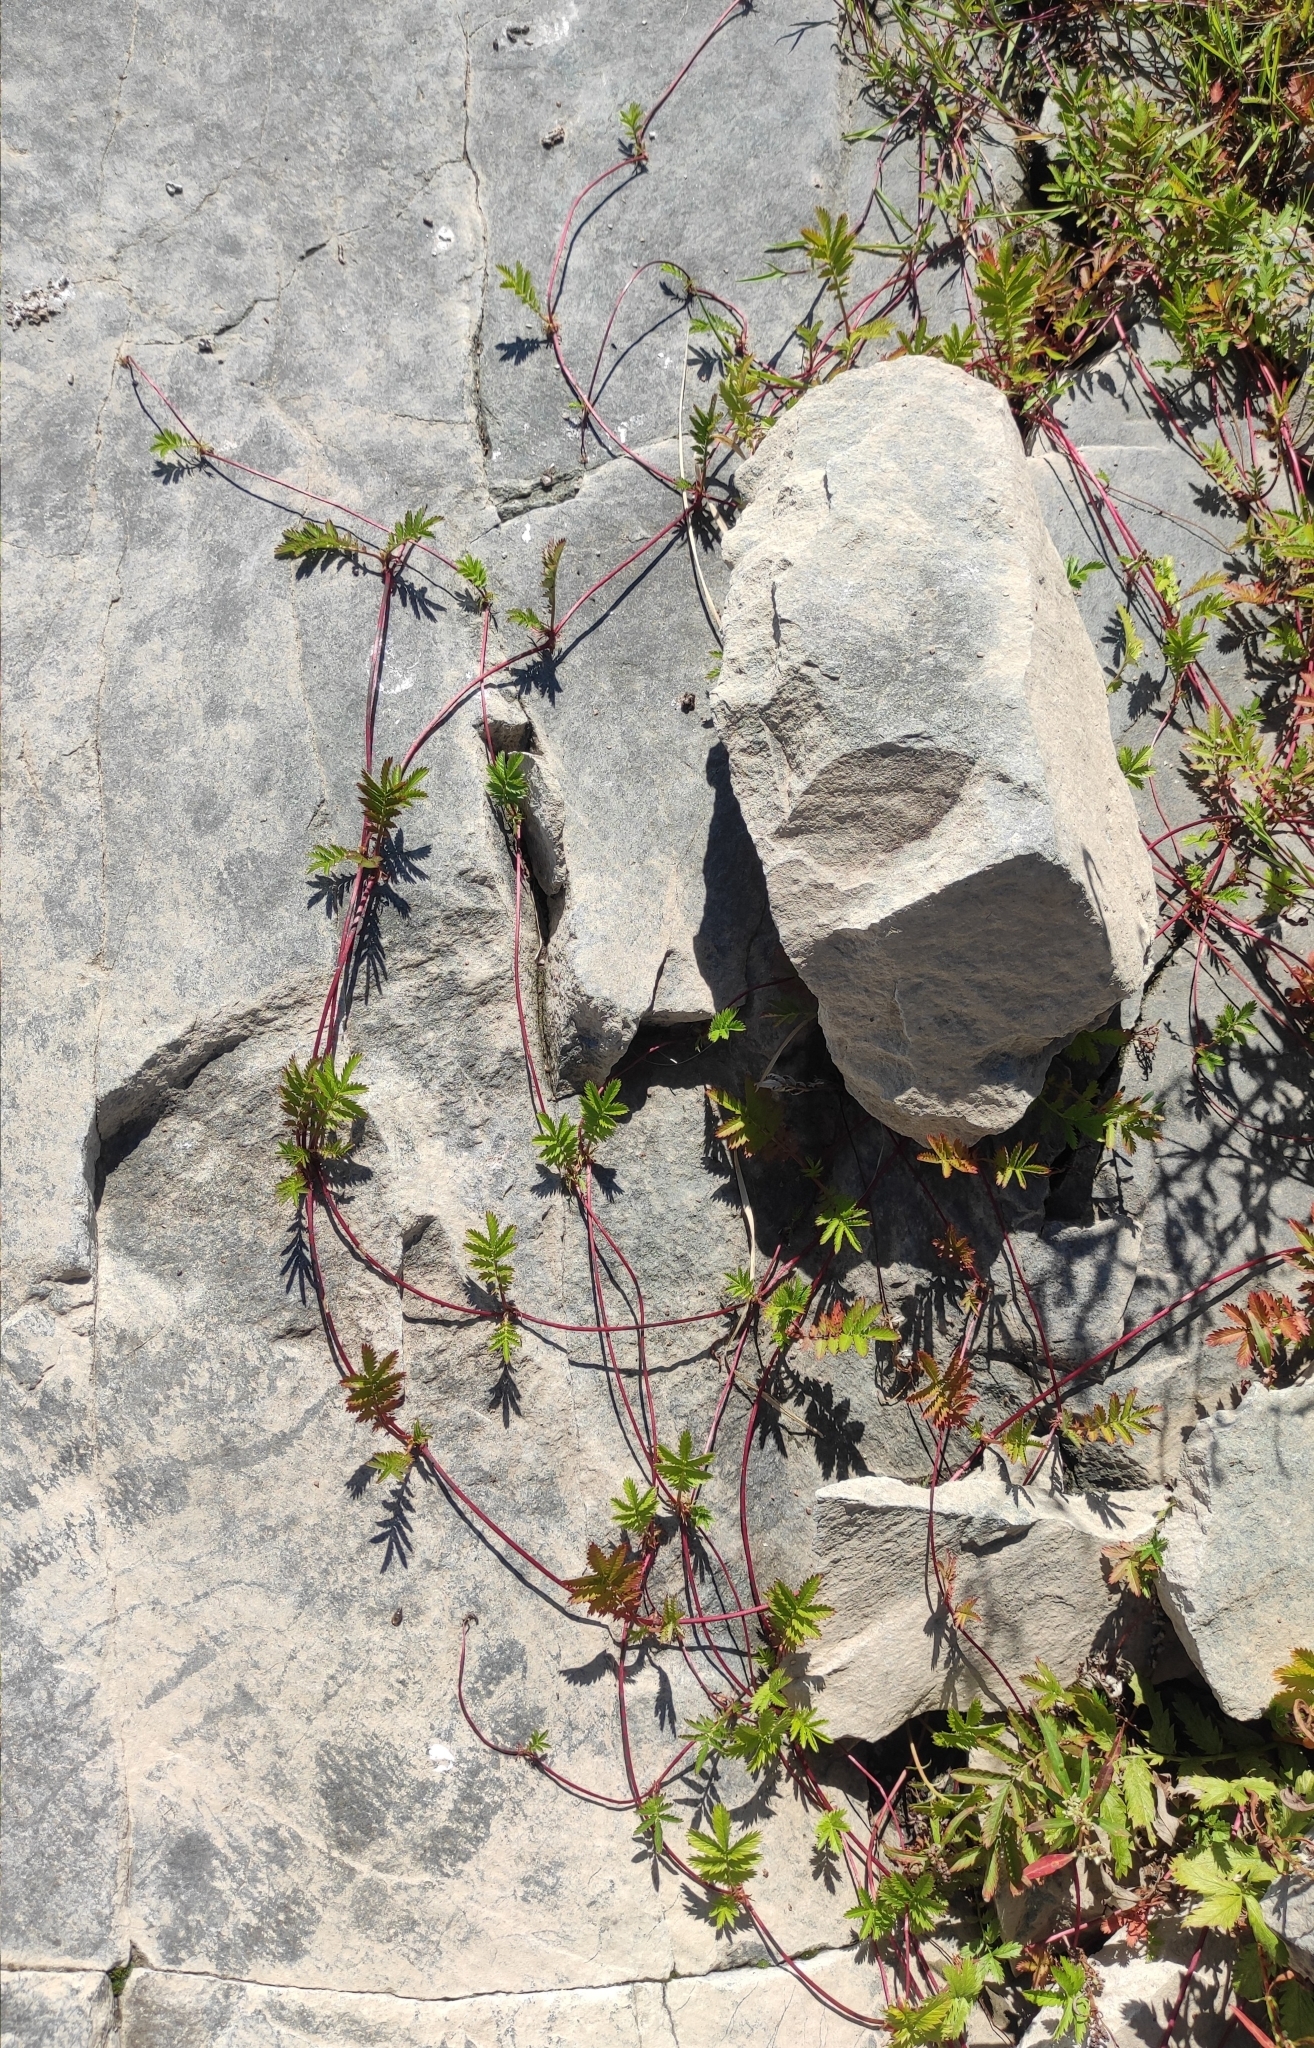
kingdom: Plantae
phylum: Tracheophyta
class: Magnoliopsida
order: Rosales
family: Rosaceae
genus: Argentina
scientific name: Argentina anserina
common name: Common silverweed
